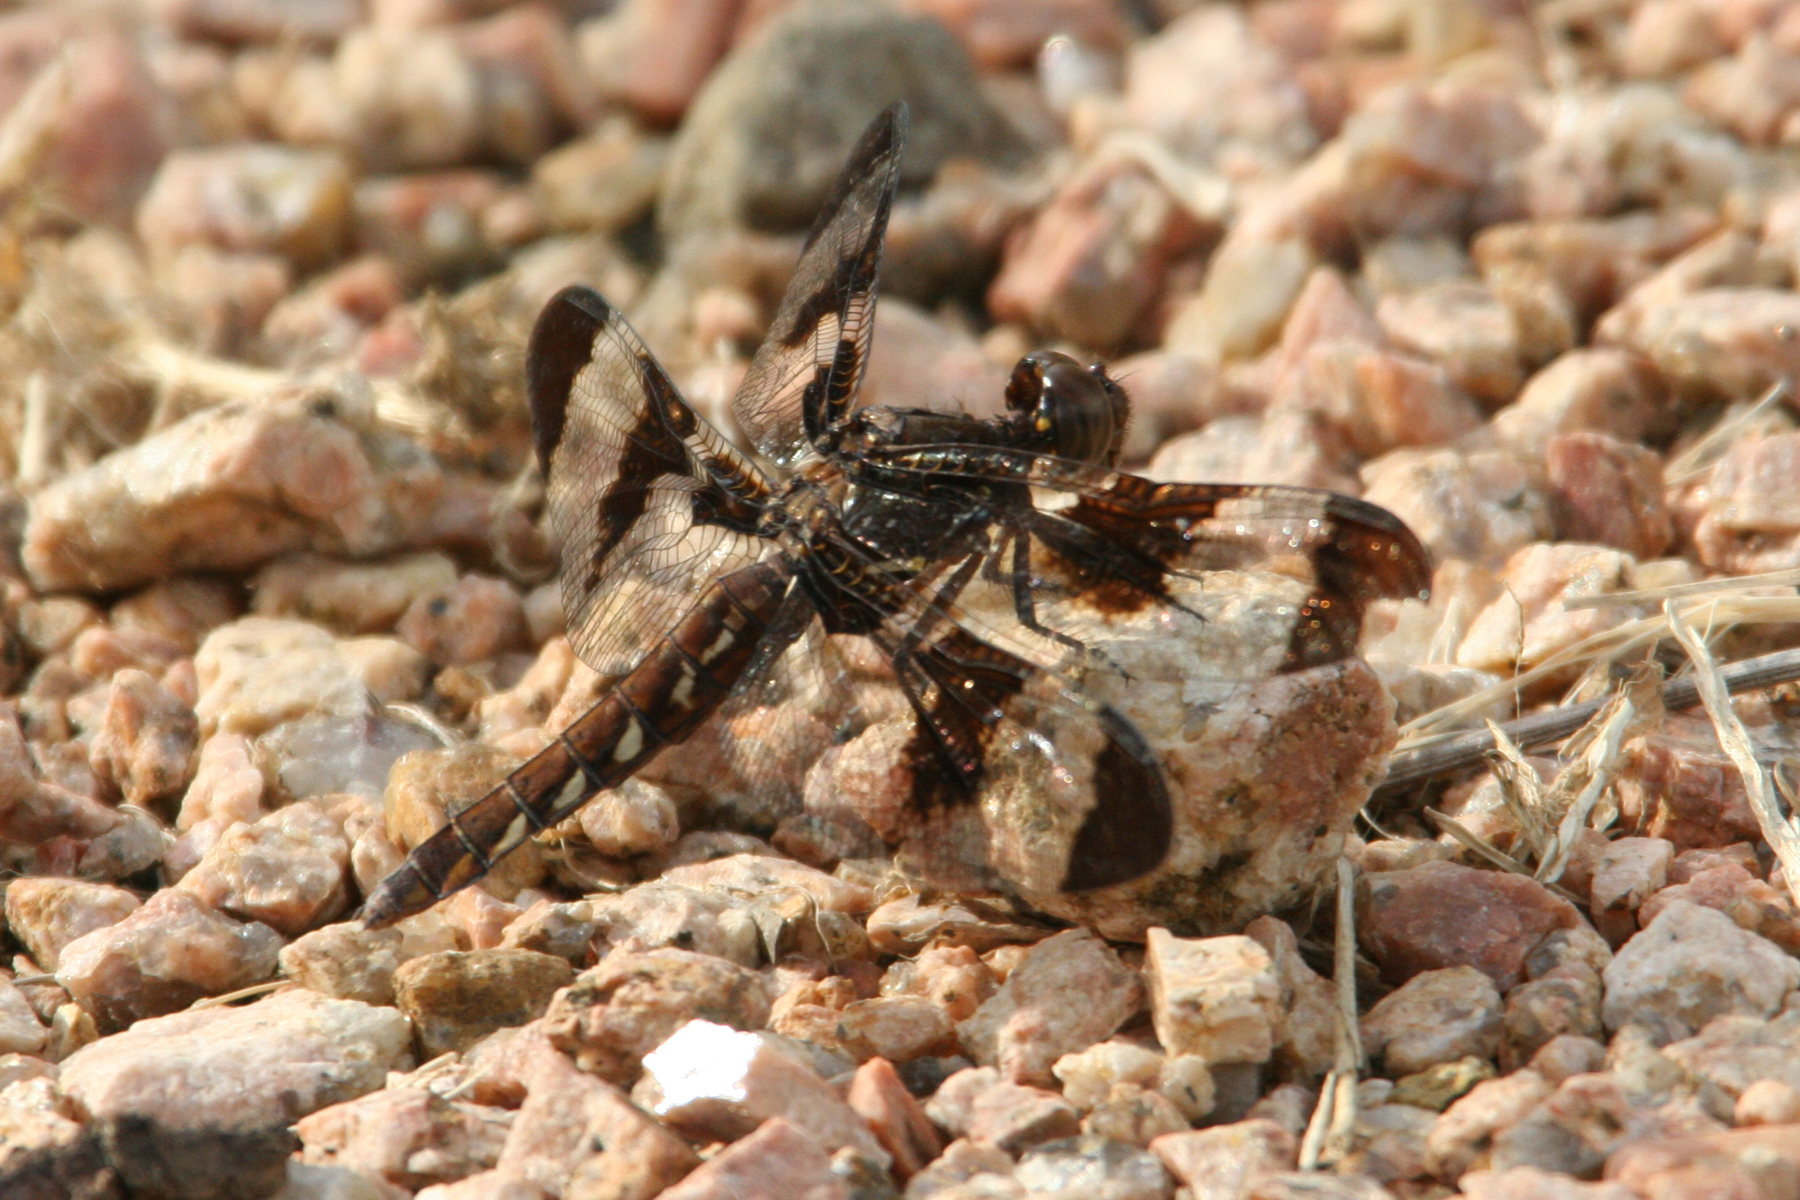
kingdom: Animalia
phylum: Arthropoda
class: Insecta
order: Odonata
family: Libellulidae
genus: Plathemis
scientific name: Plathemis lydia
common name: Common whitetail
